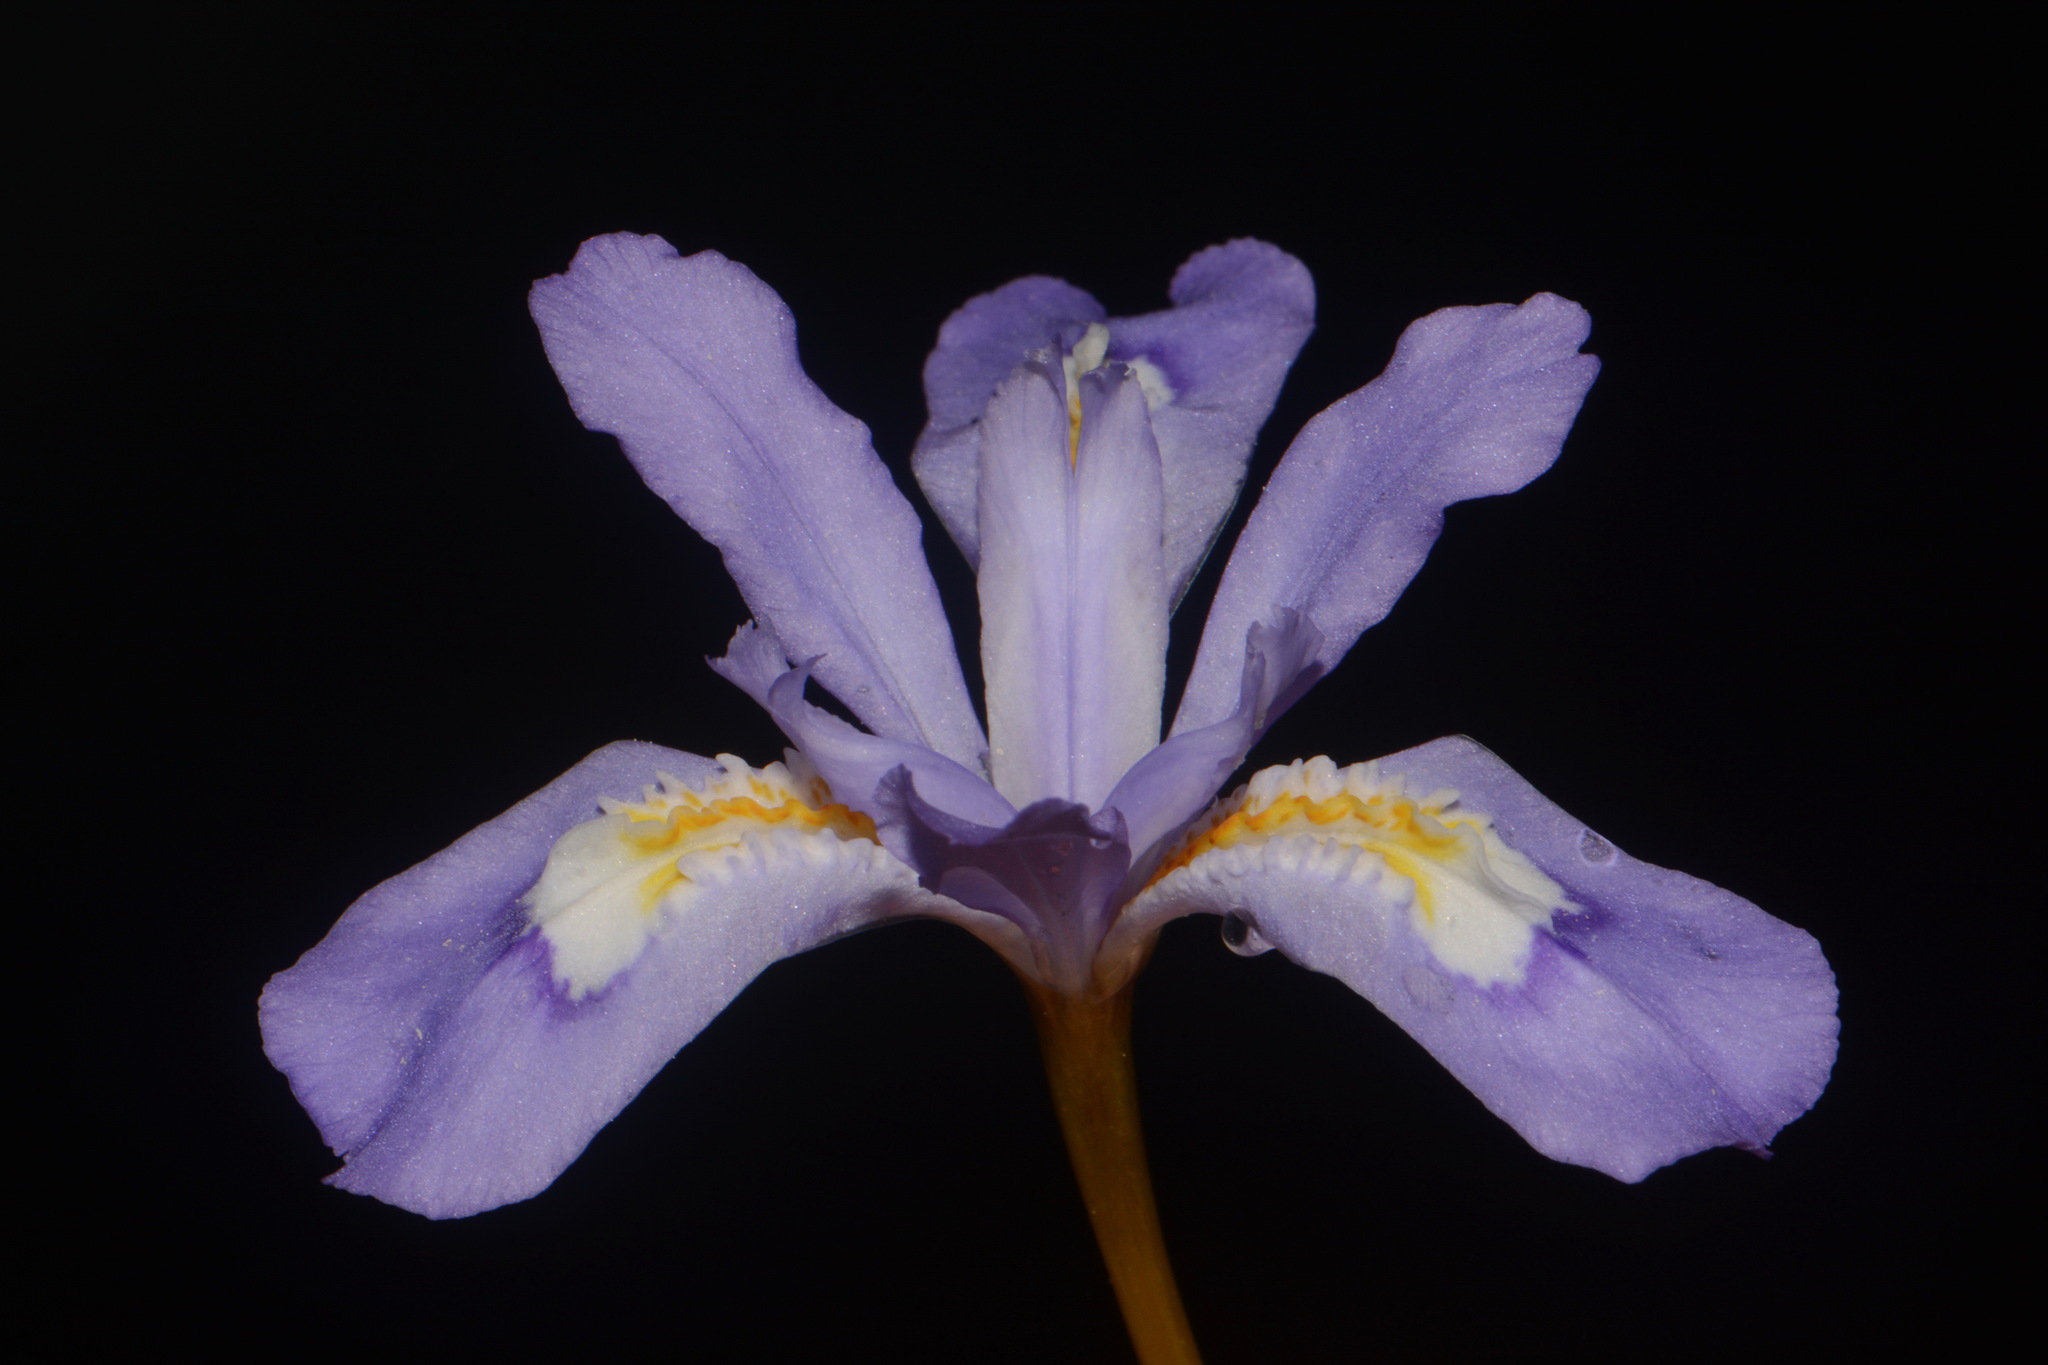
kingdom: Plantae
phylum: Tracheophyta
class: Liliopsida
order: Asparagales
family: Iridaceae
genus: Iris
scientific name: Iris cristata
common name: Crested iris
